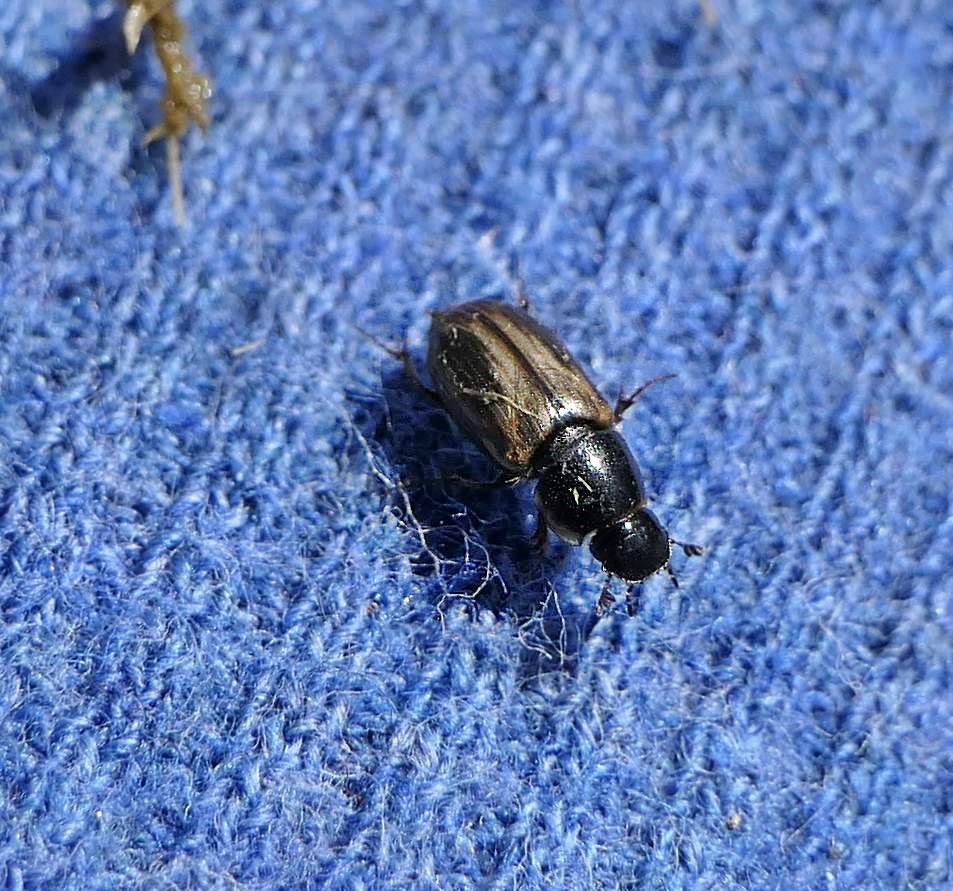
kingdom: Animalia
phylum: Arthropoda
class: Insecta
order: Coleoptera
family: Scarabaeidae
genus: Melinopterus
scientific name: Melinopterus prodromus
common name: Spring small dung beetle
